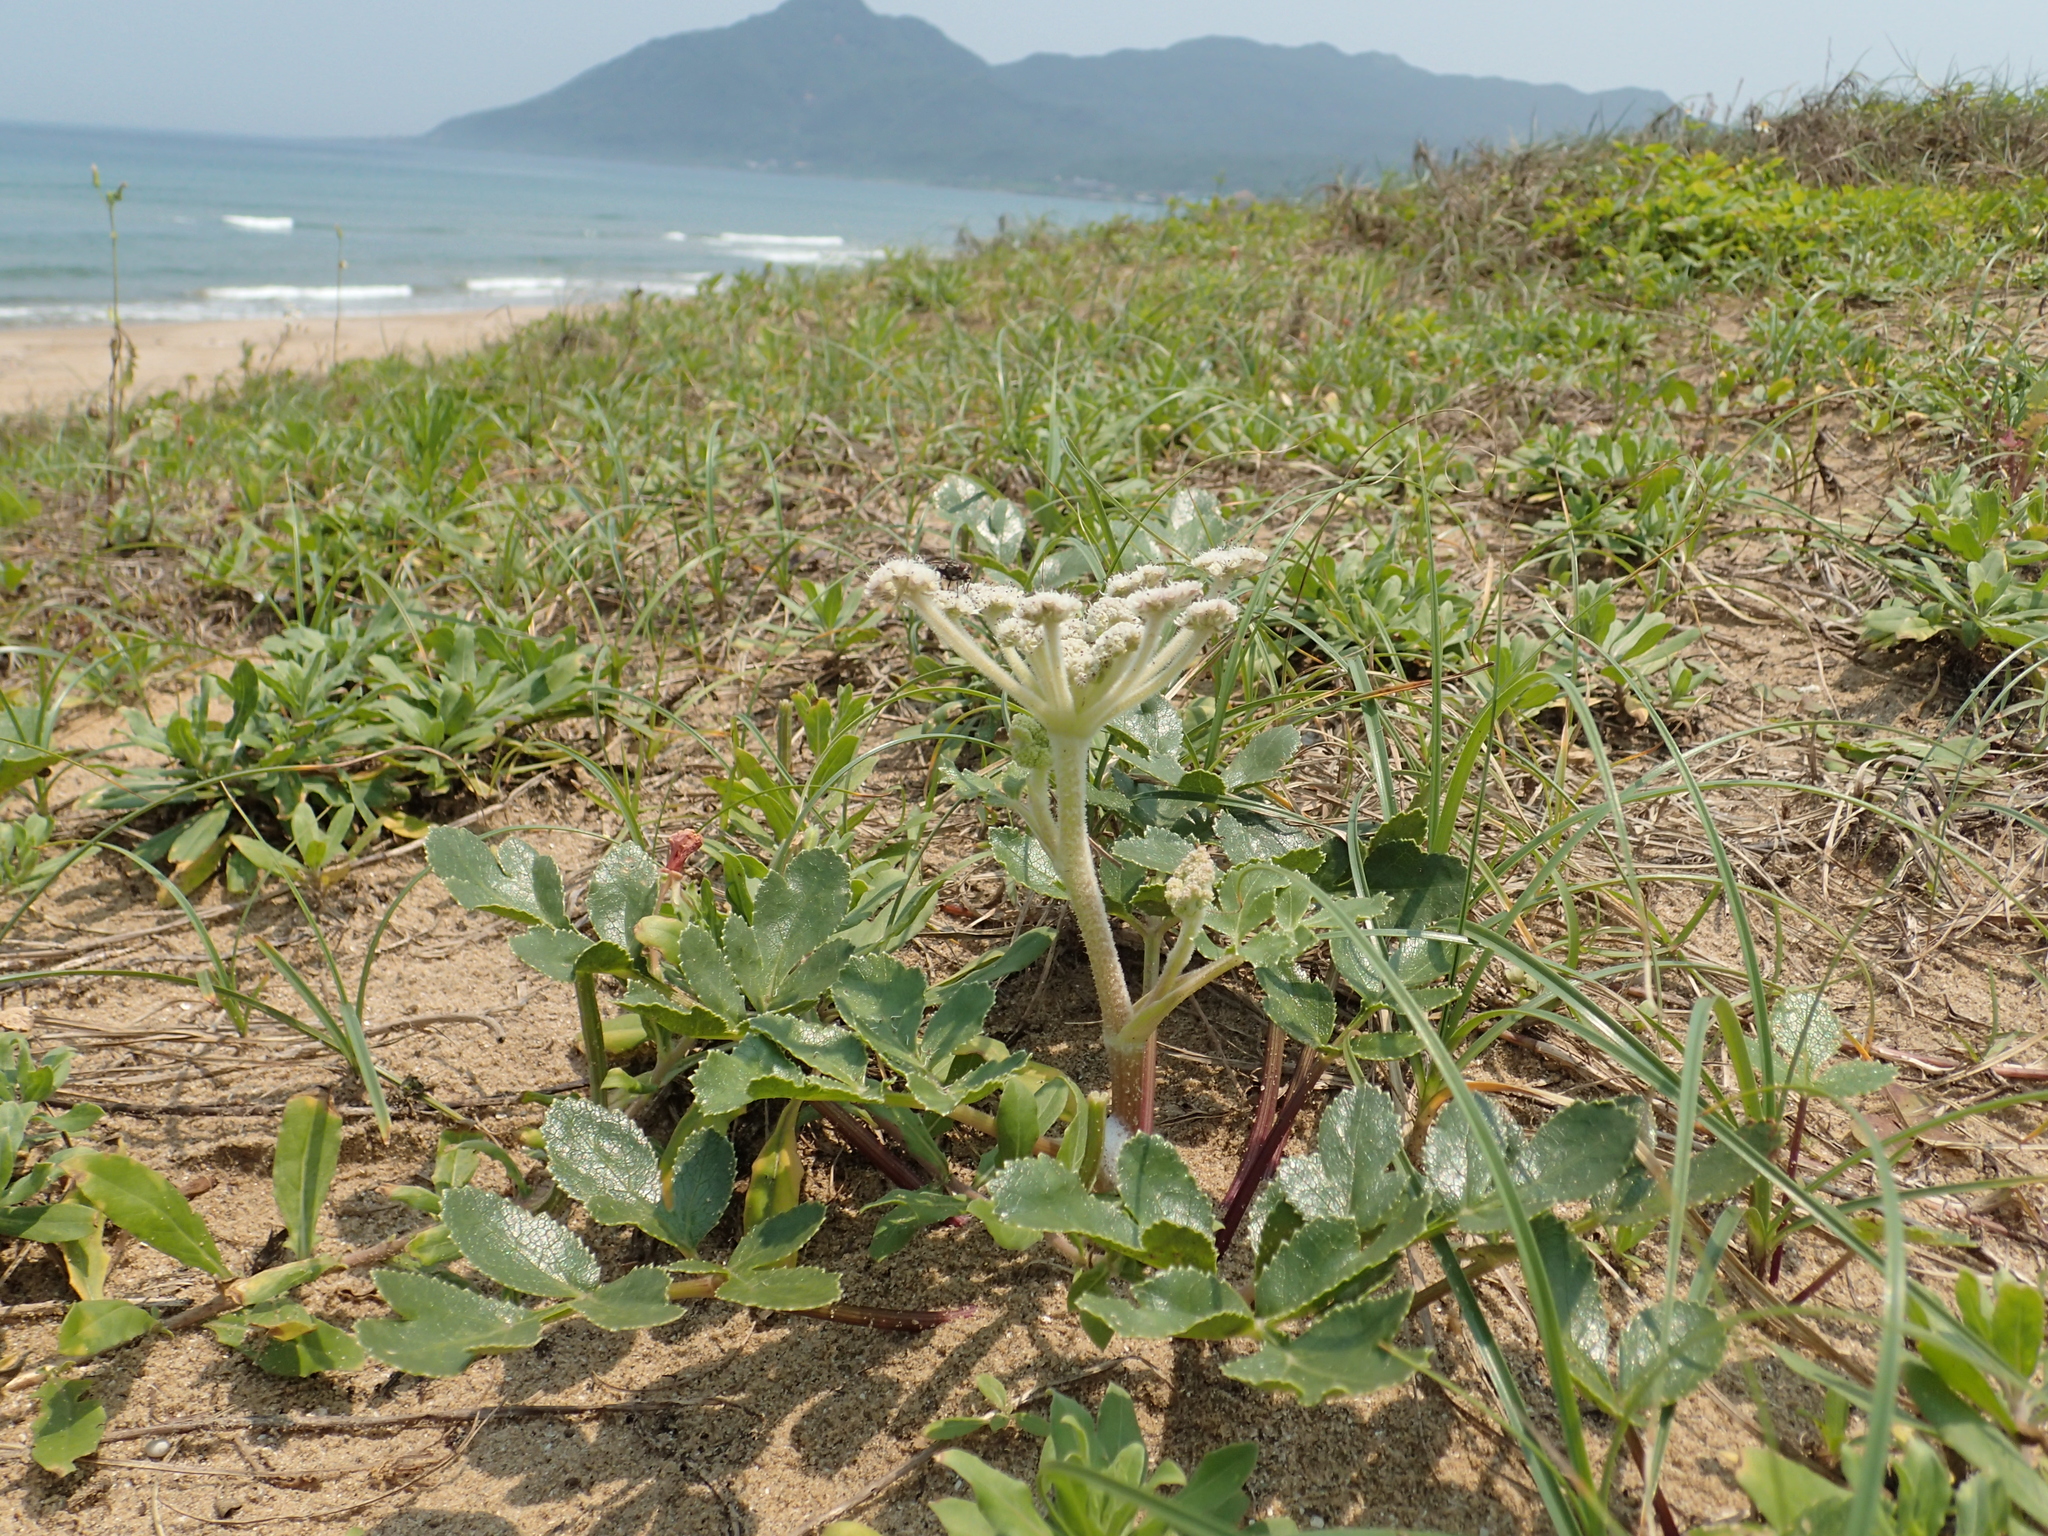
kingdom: Plantae
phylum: Tracheophyta
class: Magnoliopsida
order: Apiales
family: Apiaceae
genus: Glehnia
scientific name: Glehnia littoralis
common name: Beach silvertop
